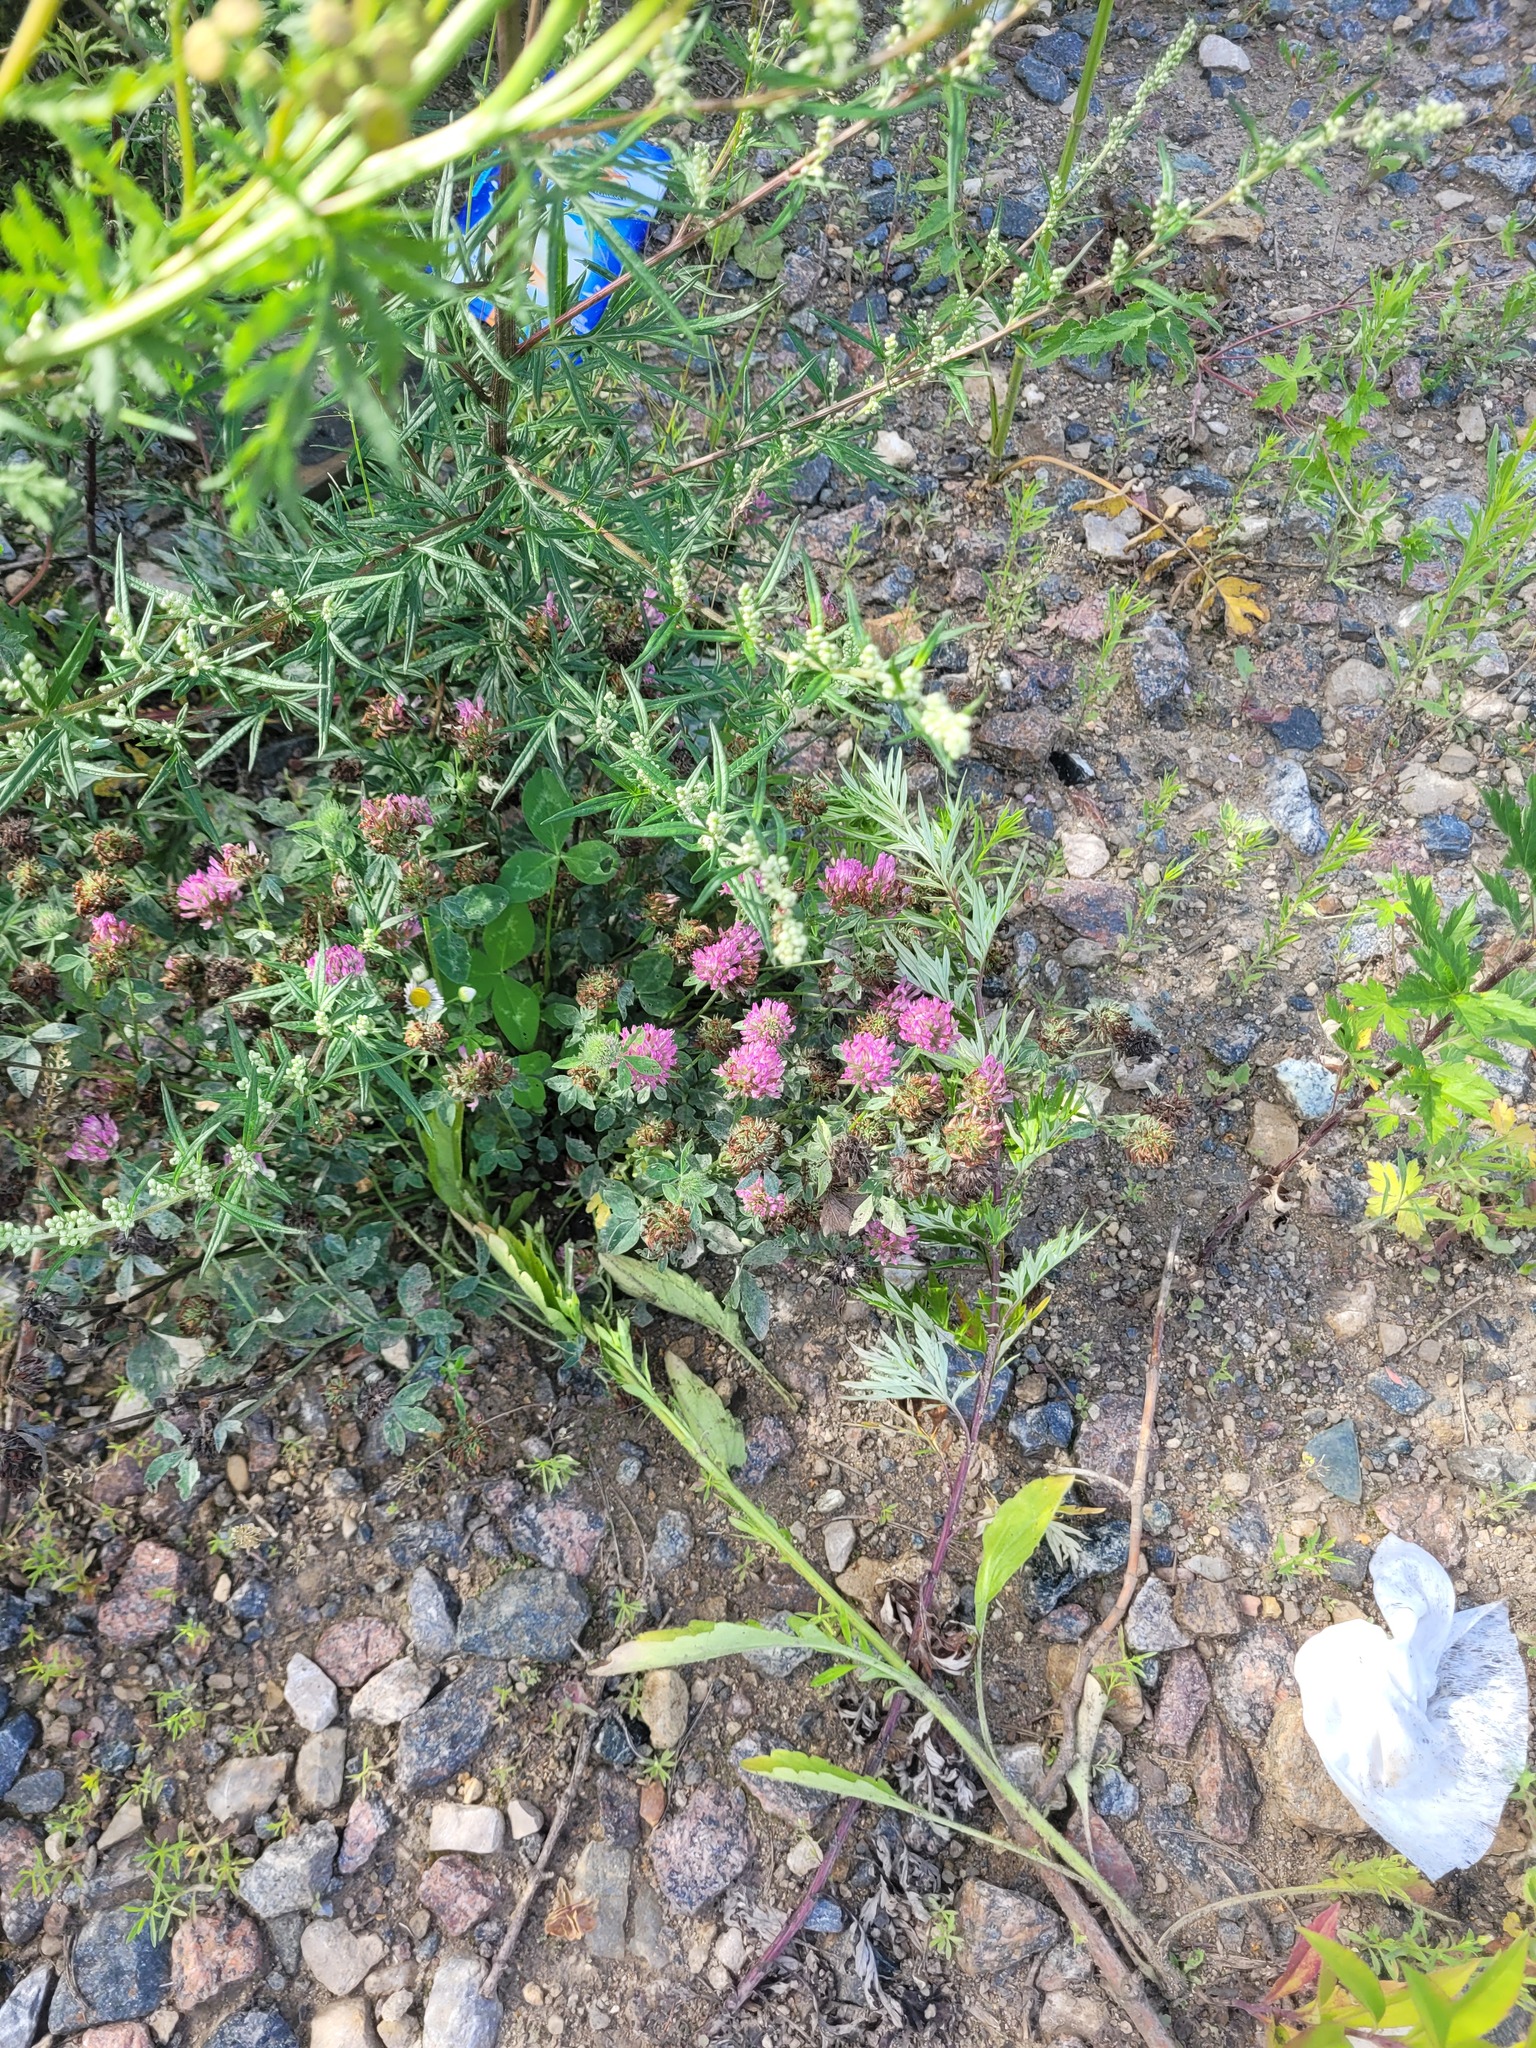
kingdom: Plantae
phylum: Tracheophyta
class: Magnoliopsida
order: Fabales
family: Fabaceae
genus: Trifolium
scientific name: Trifolium pratense
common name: Red clover
